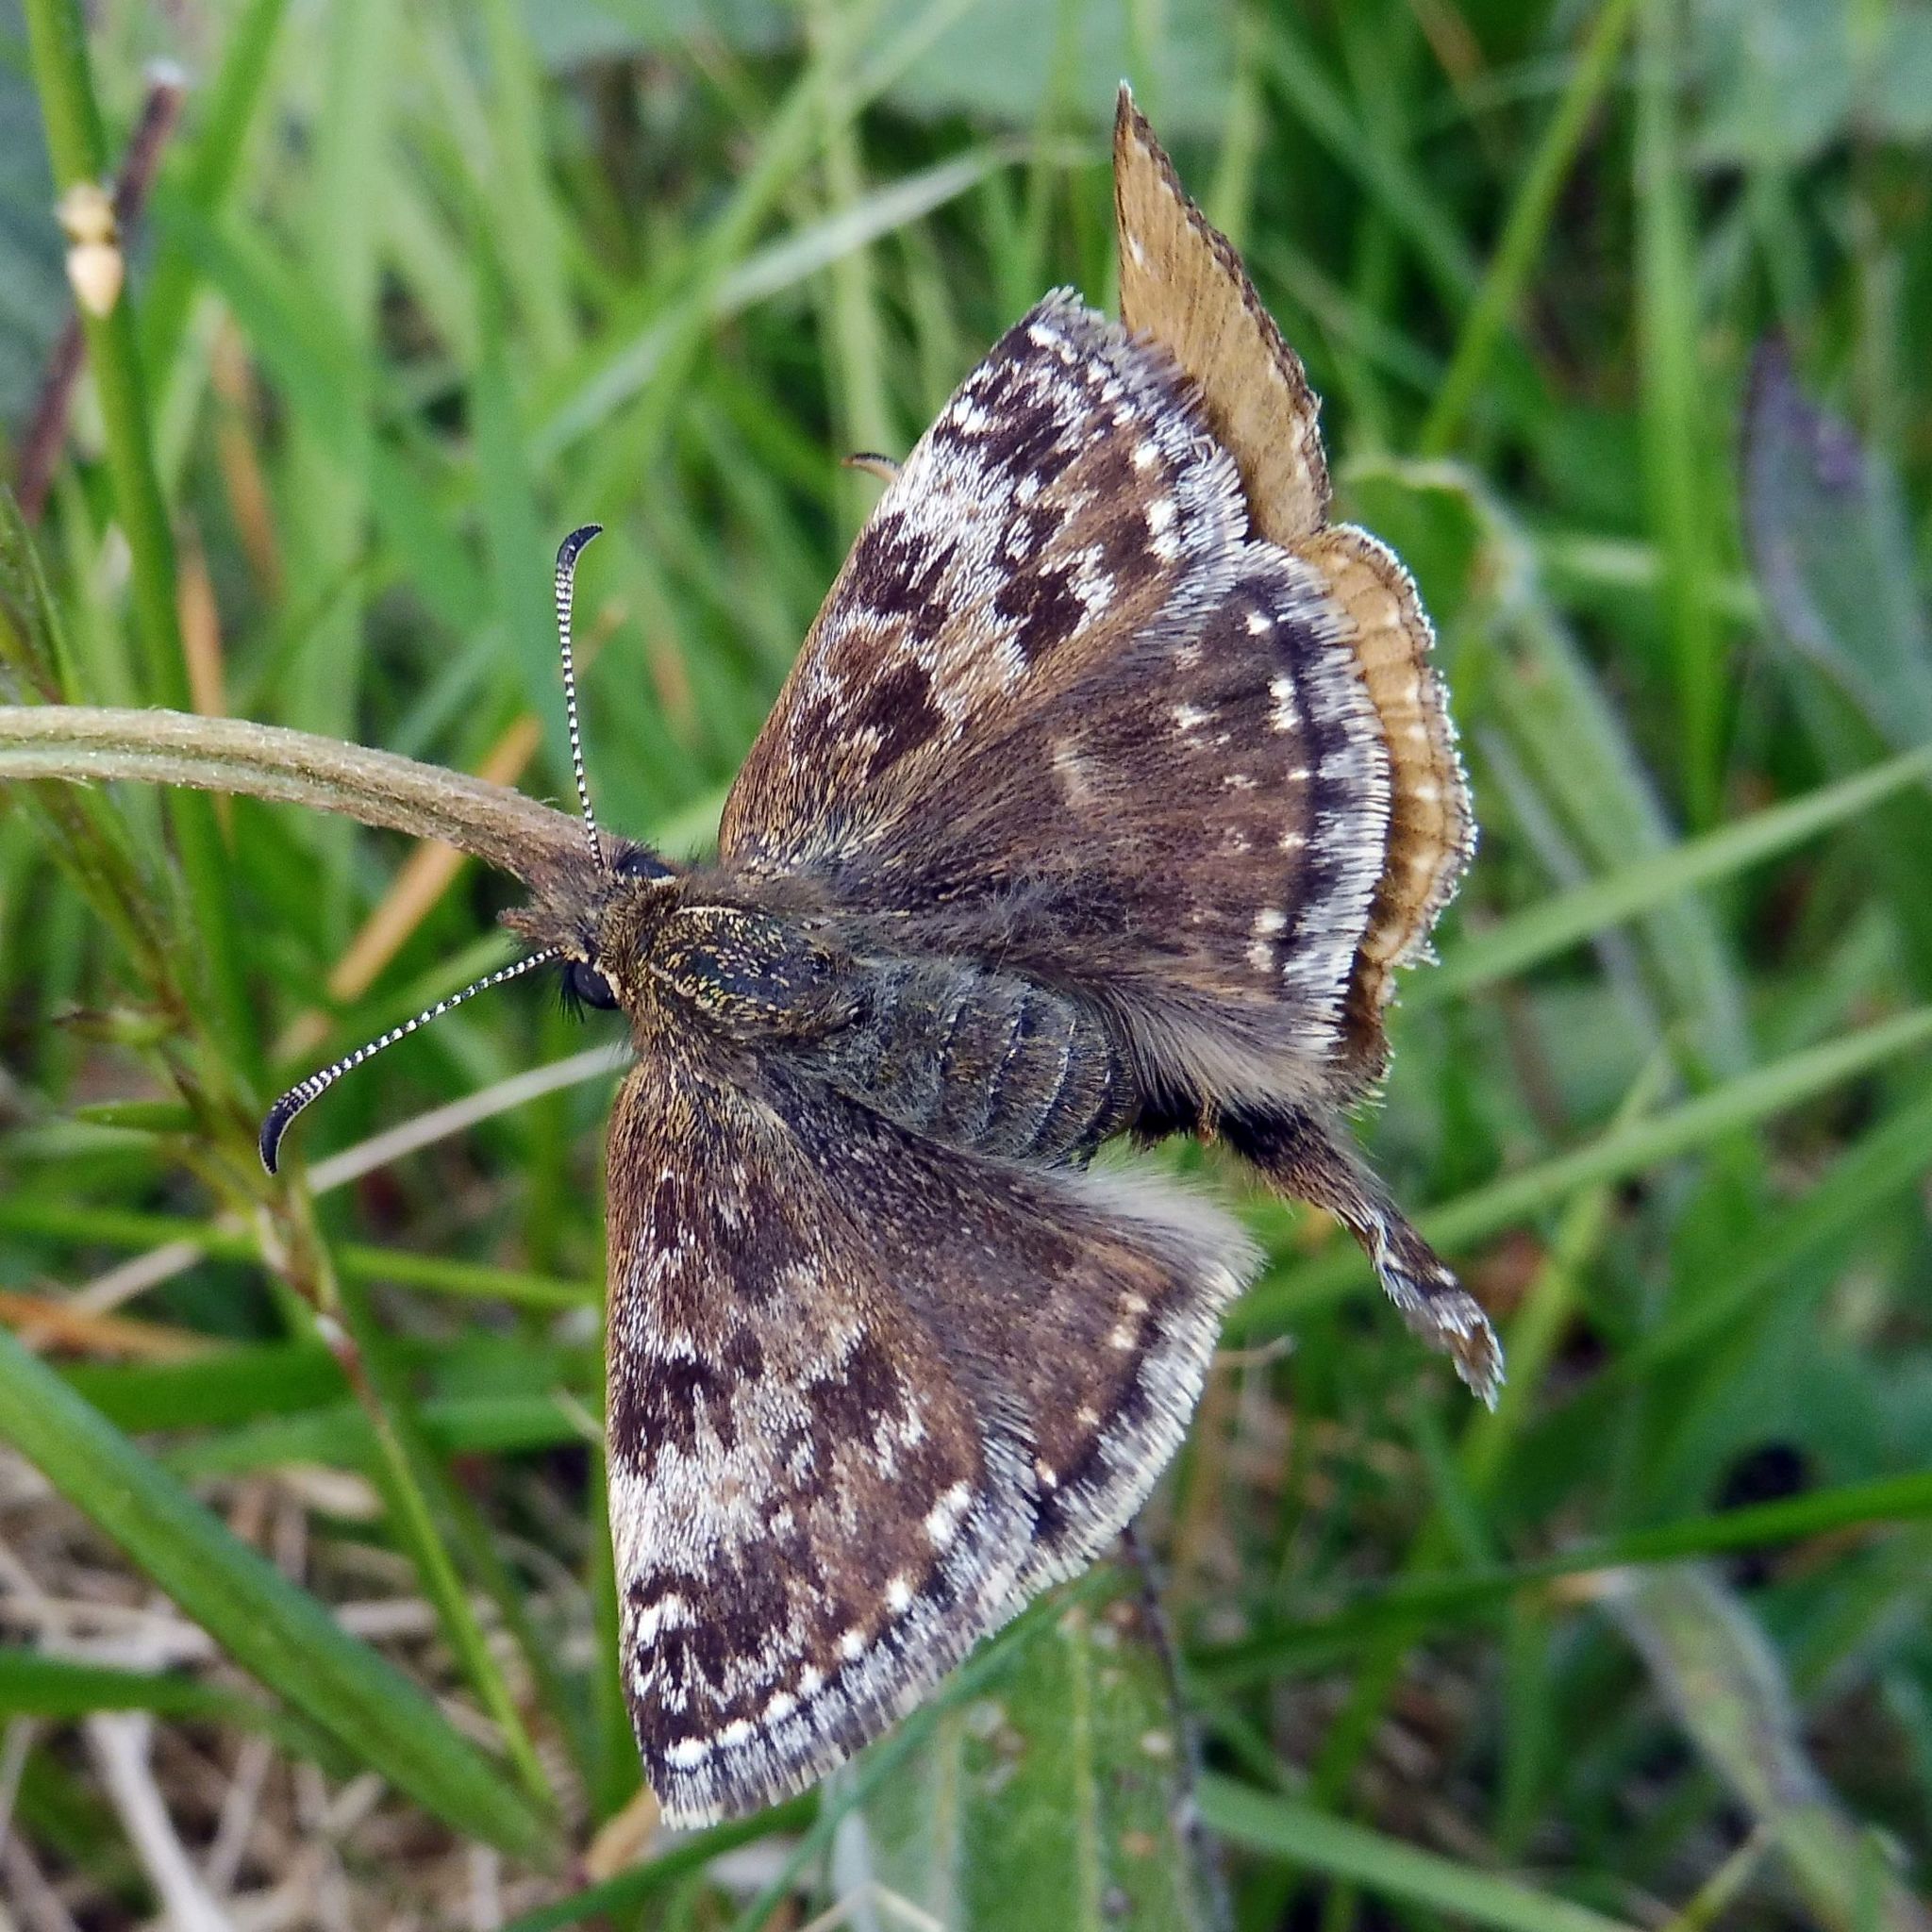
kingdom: Animalia
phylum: Arthropoda
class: Insecta
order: Lepidoptera
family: Hesperiidae
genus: Erynnis
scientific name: Erynnis tages
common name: Dingy skipper
